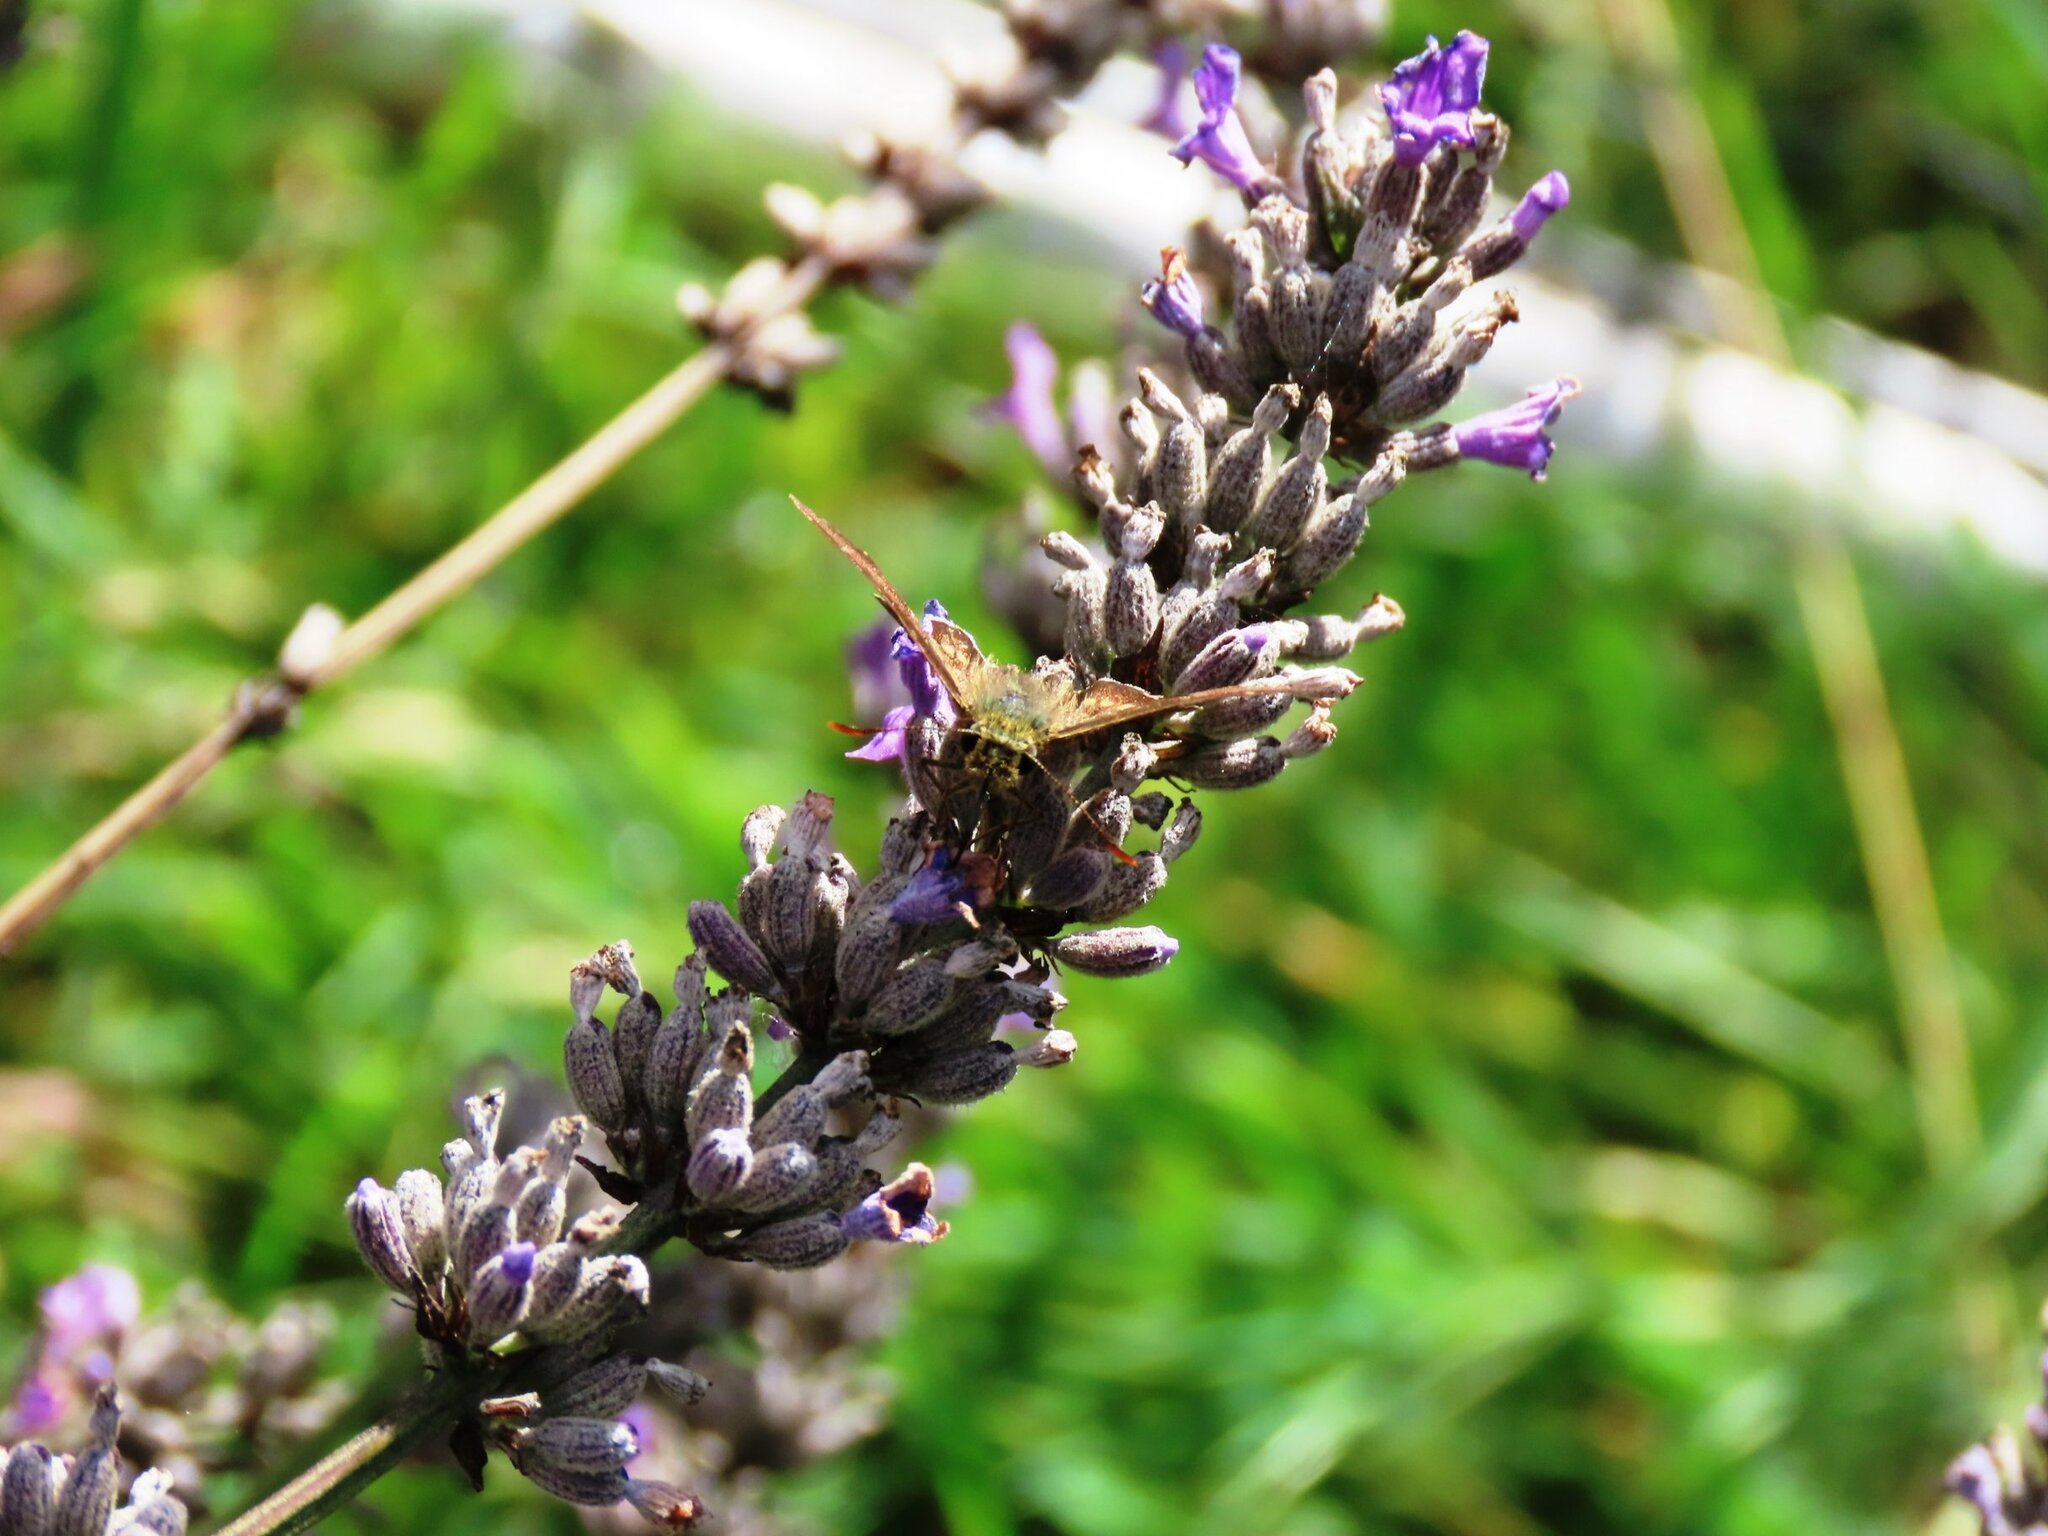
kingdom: Animalia
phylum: Arthropoda
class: Insecta
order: Lepidoptera
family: Hesperiidae
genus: Dispar
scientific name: Dispar compacta
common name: Barred skipper
